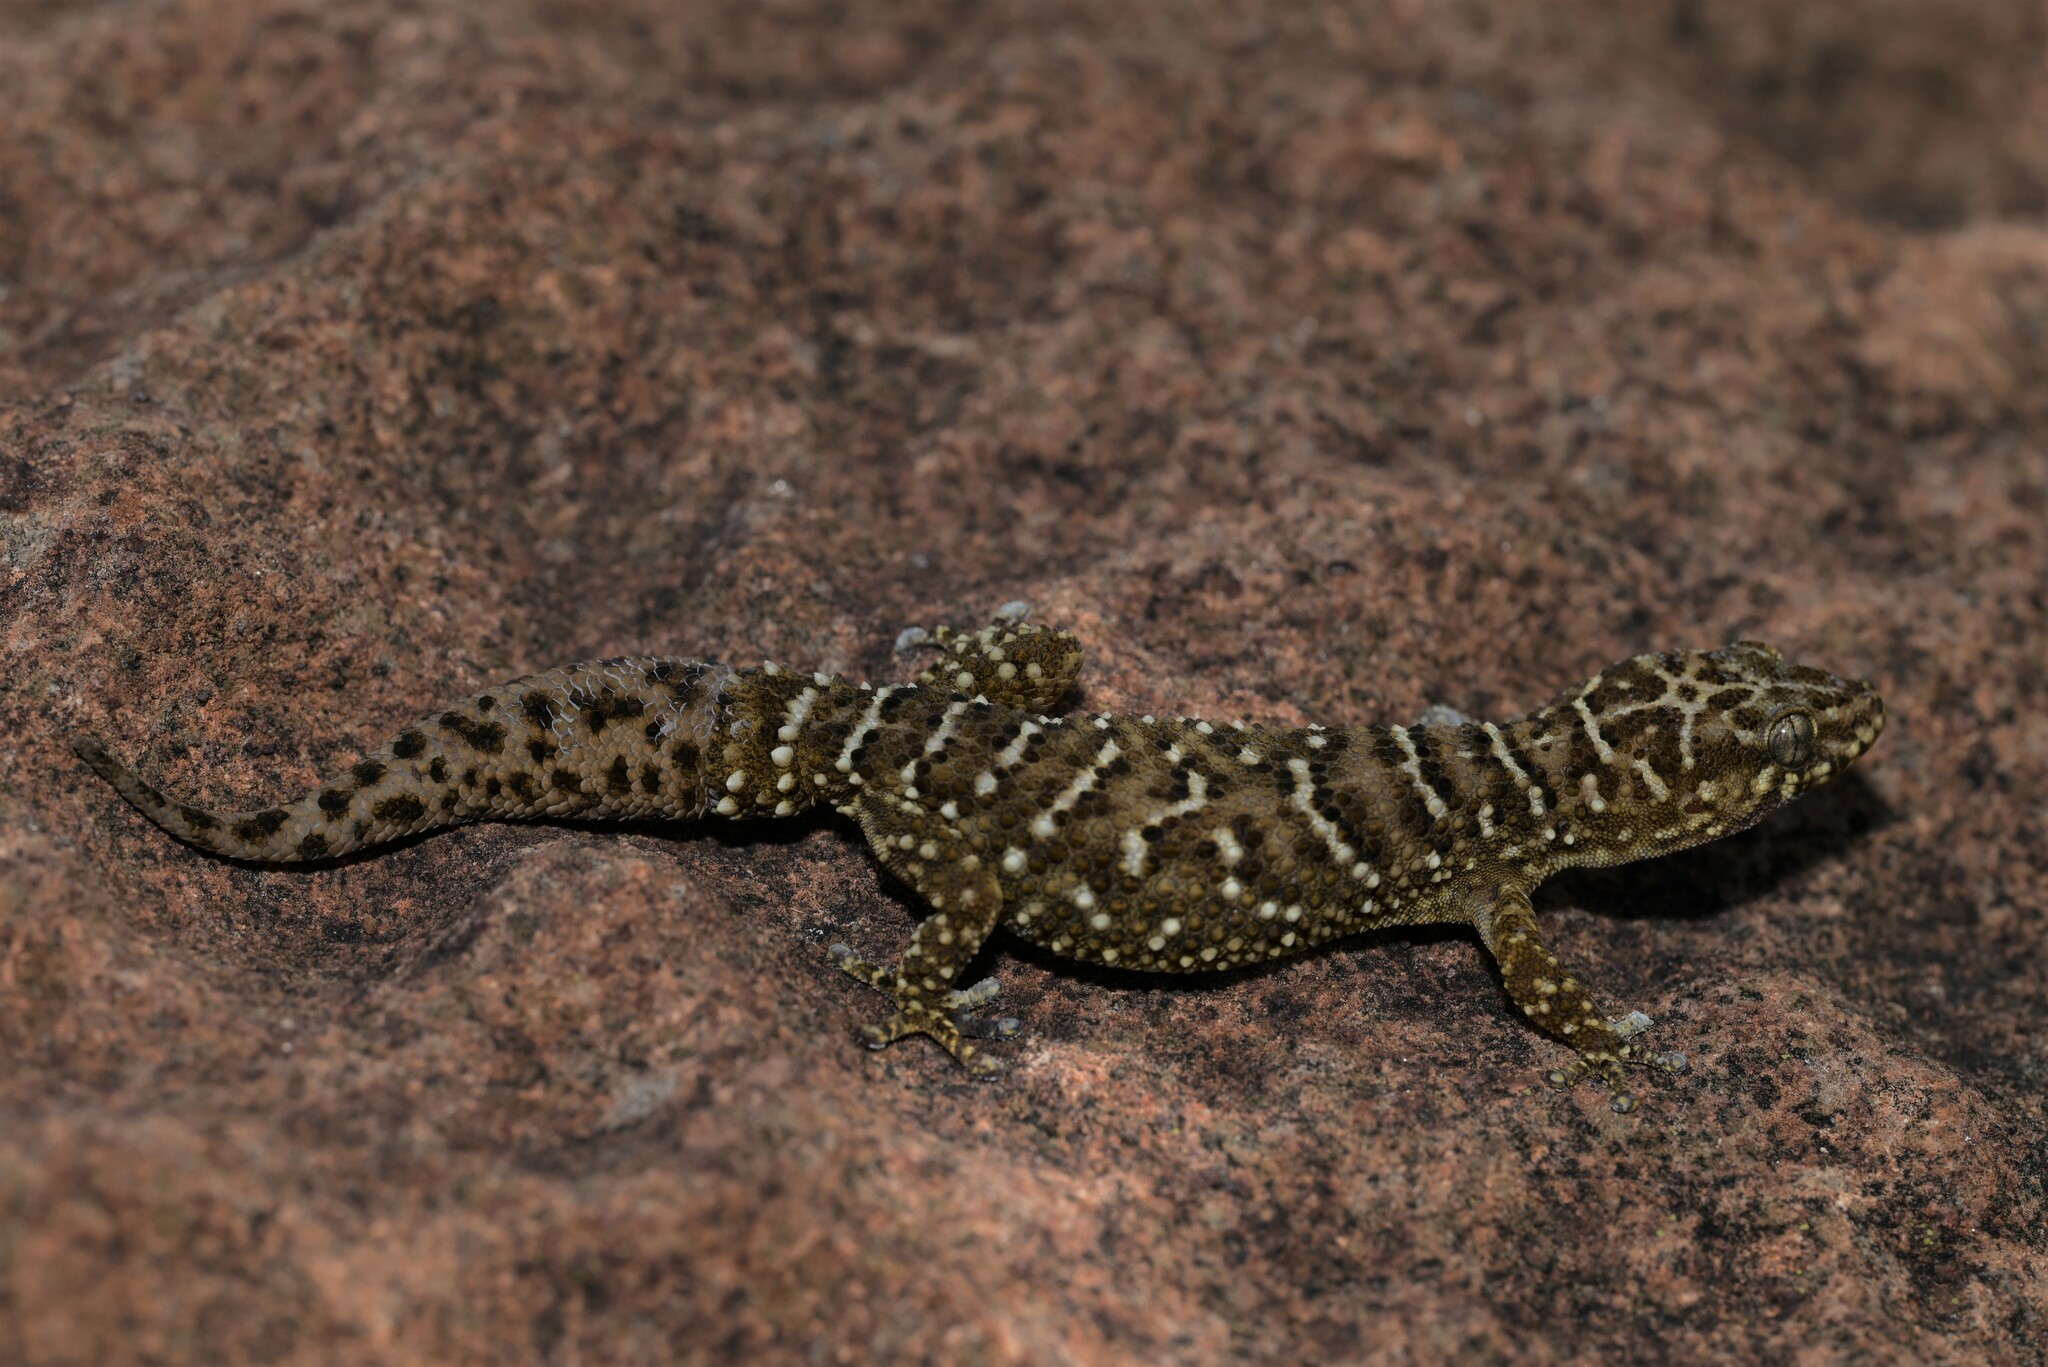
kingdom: Animalia
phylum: Chordata
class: Squamata
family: Gekkonidae
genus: Pachydactylus
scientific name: Pachydactylus vansoni
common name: Van son's gecko
